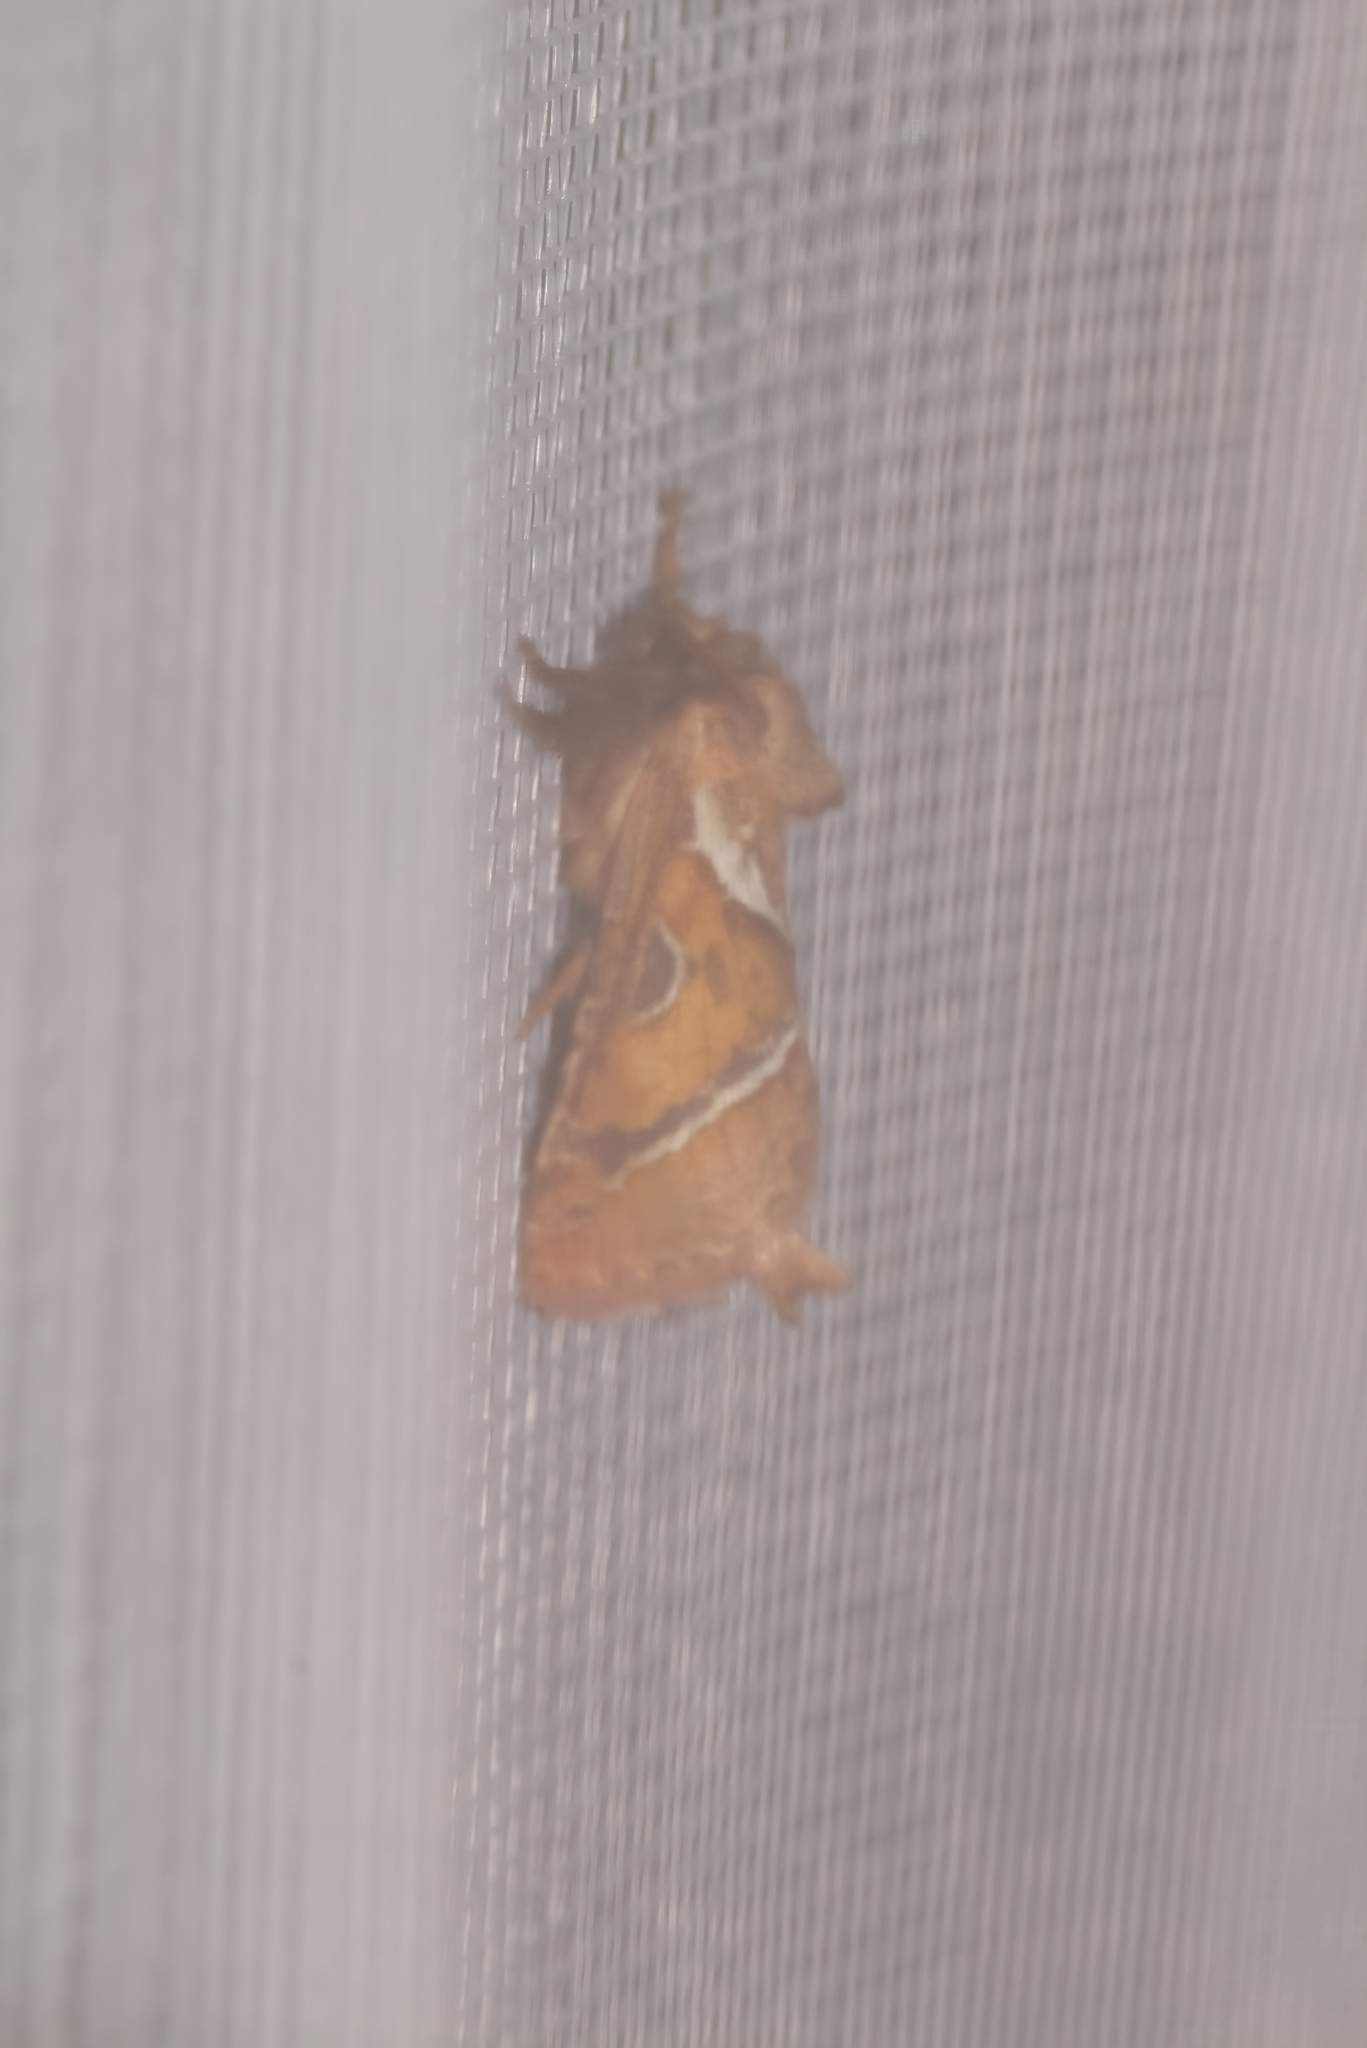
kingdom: Animalia
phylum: Arthropoda
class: Insecta
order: Lepidoptera
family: Hepialidae
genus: Triodia
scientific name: Triodia sylvina
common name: Orange swift
